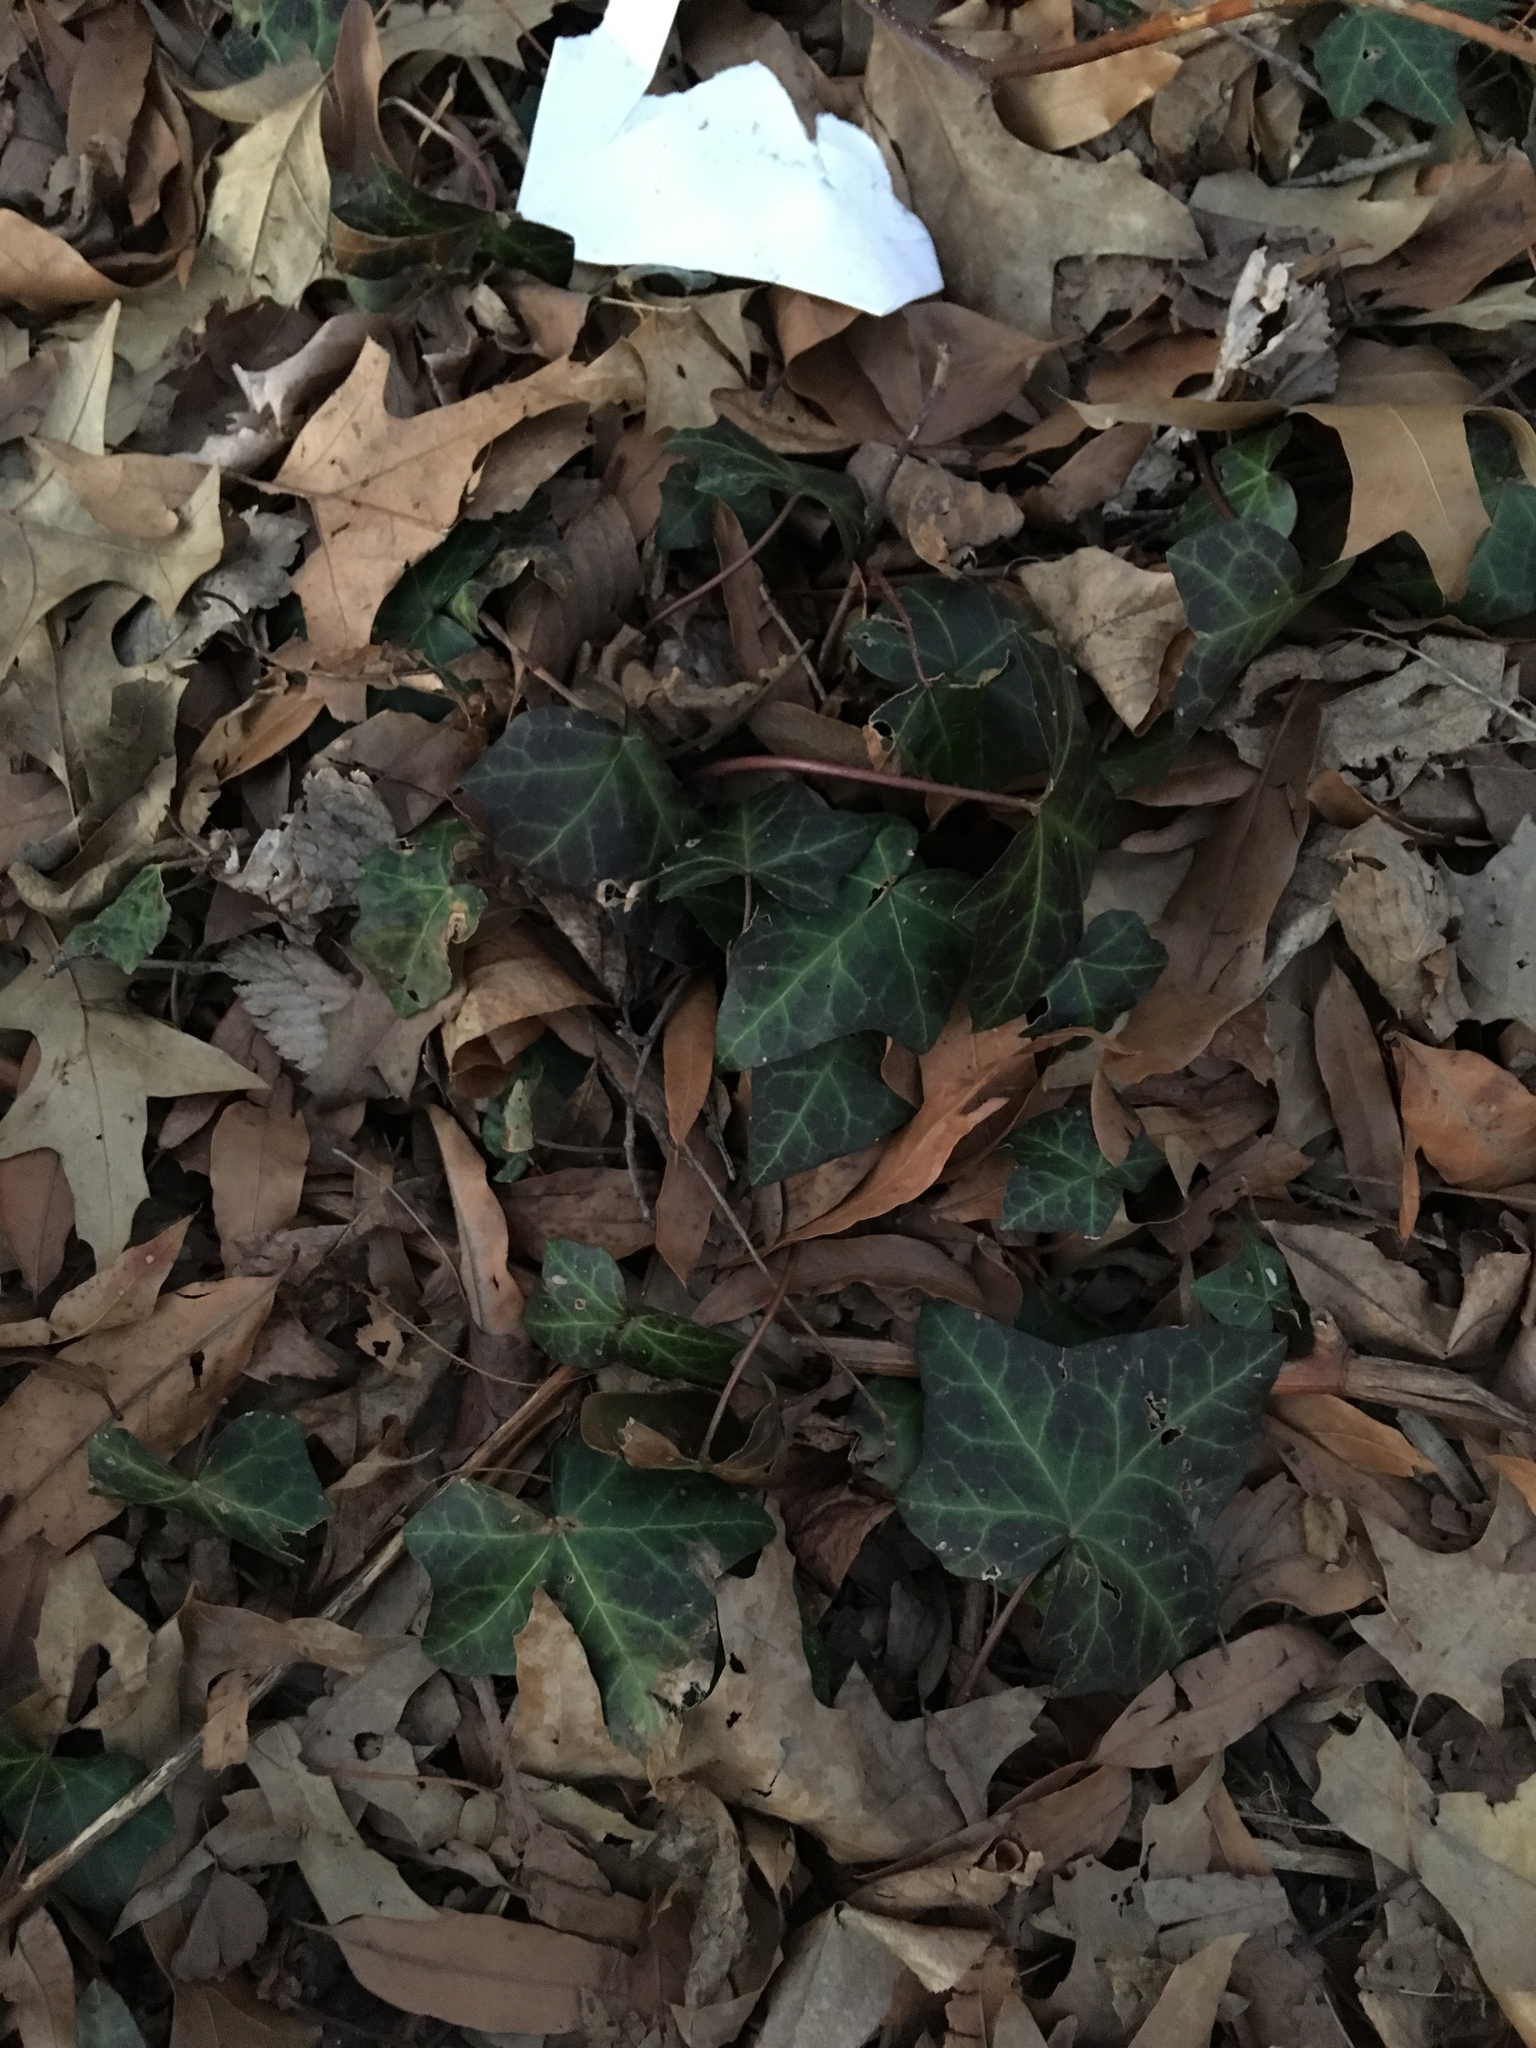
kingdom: Plantae
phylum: Tracheophyta
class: Magnoliopsida
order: Apiales
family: Araliaceae
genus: Hedera
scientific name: Hedera helix
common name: Ivy
